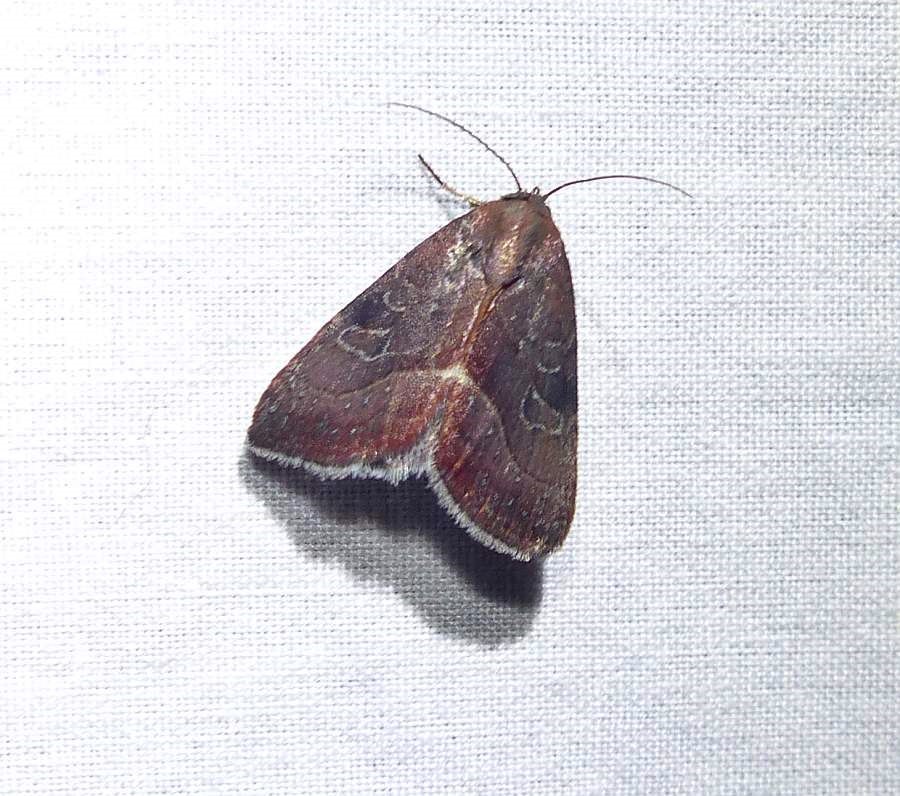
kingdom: Animalia
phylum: Arthropoda
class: Insecta
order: Lepidoptera
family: Noctuidae
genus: Galgula
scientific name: Galgula partita
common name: Wedgeling
